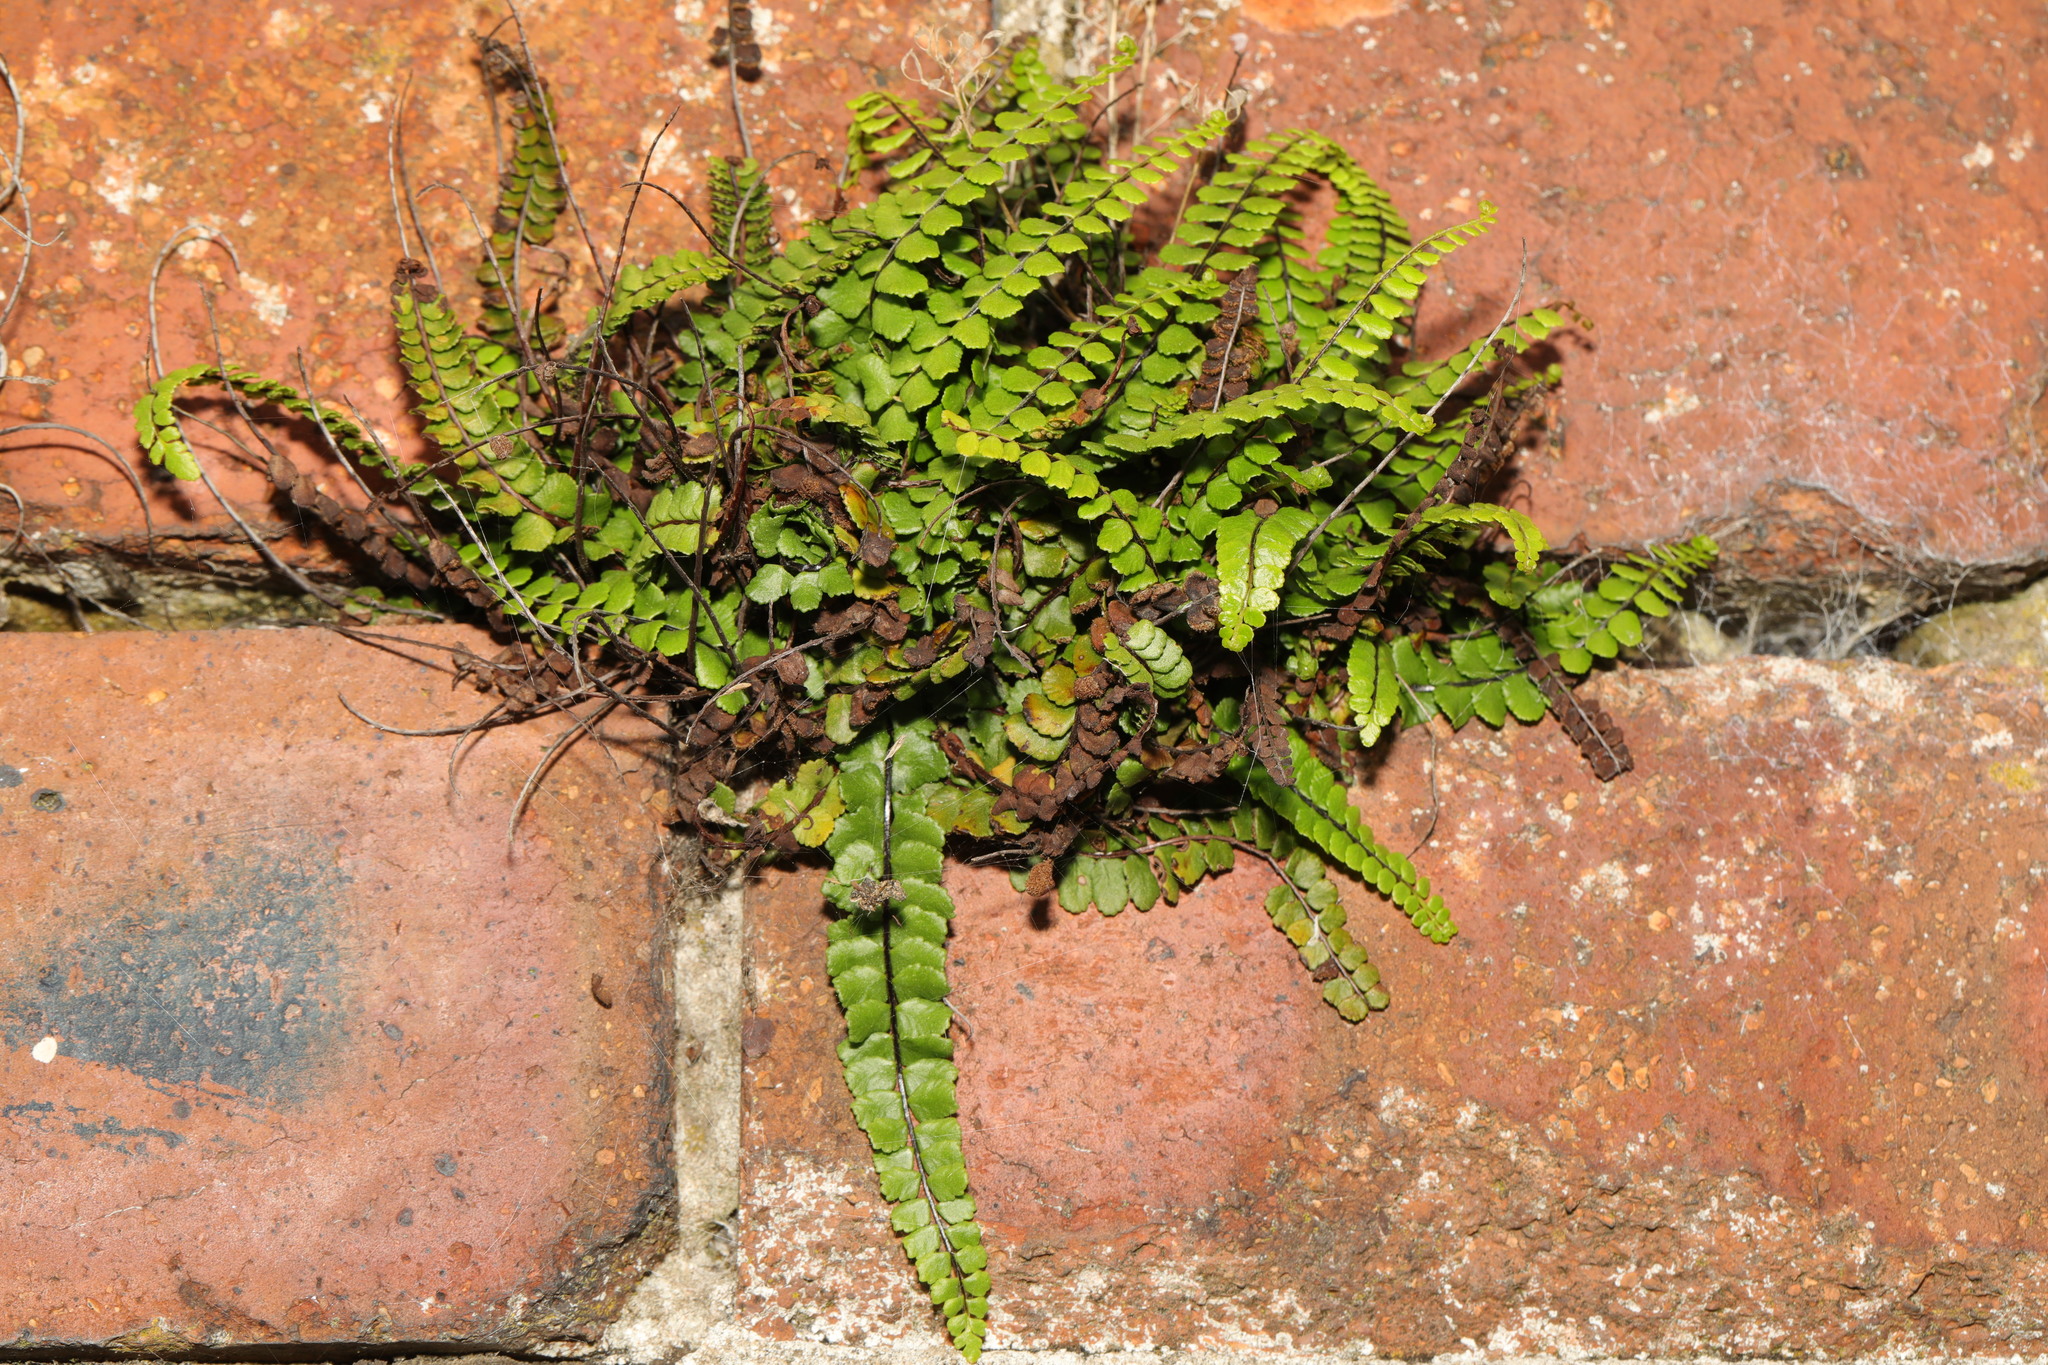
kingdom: Plantae
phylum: Tracheophyta
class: Polypodiopsida
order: Polypodiales
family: Aspleniaceae
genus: Asplenium
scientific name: Asplenium trichomanes
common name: Maidenhair spleenwort
